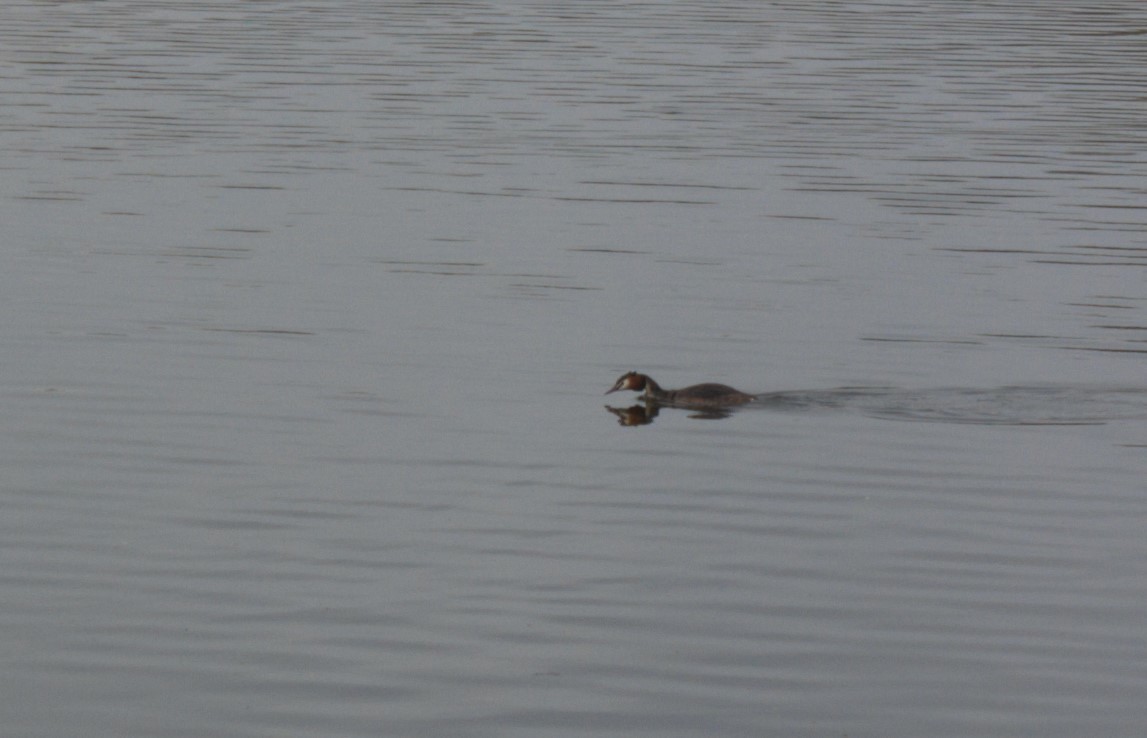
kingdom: Animalia
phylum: Chordata
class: Aves
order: Podicipediformes
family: Podicipedidae
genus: Podiceps
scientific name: Podiceps cristatus
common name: Great crested grebe
